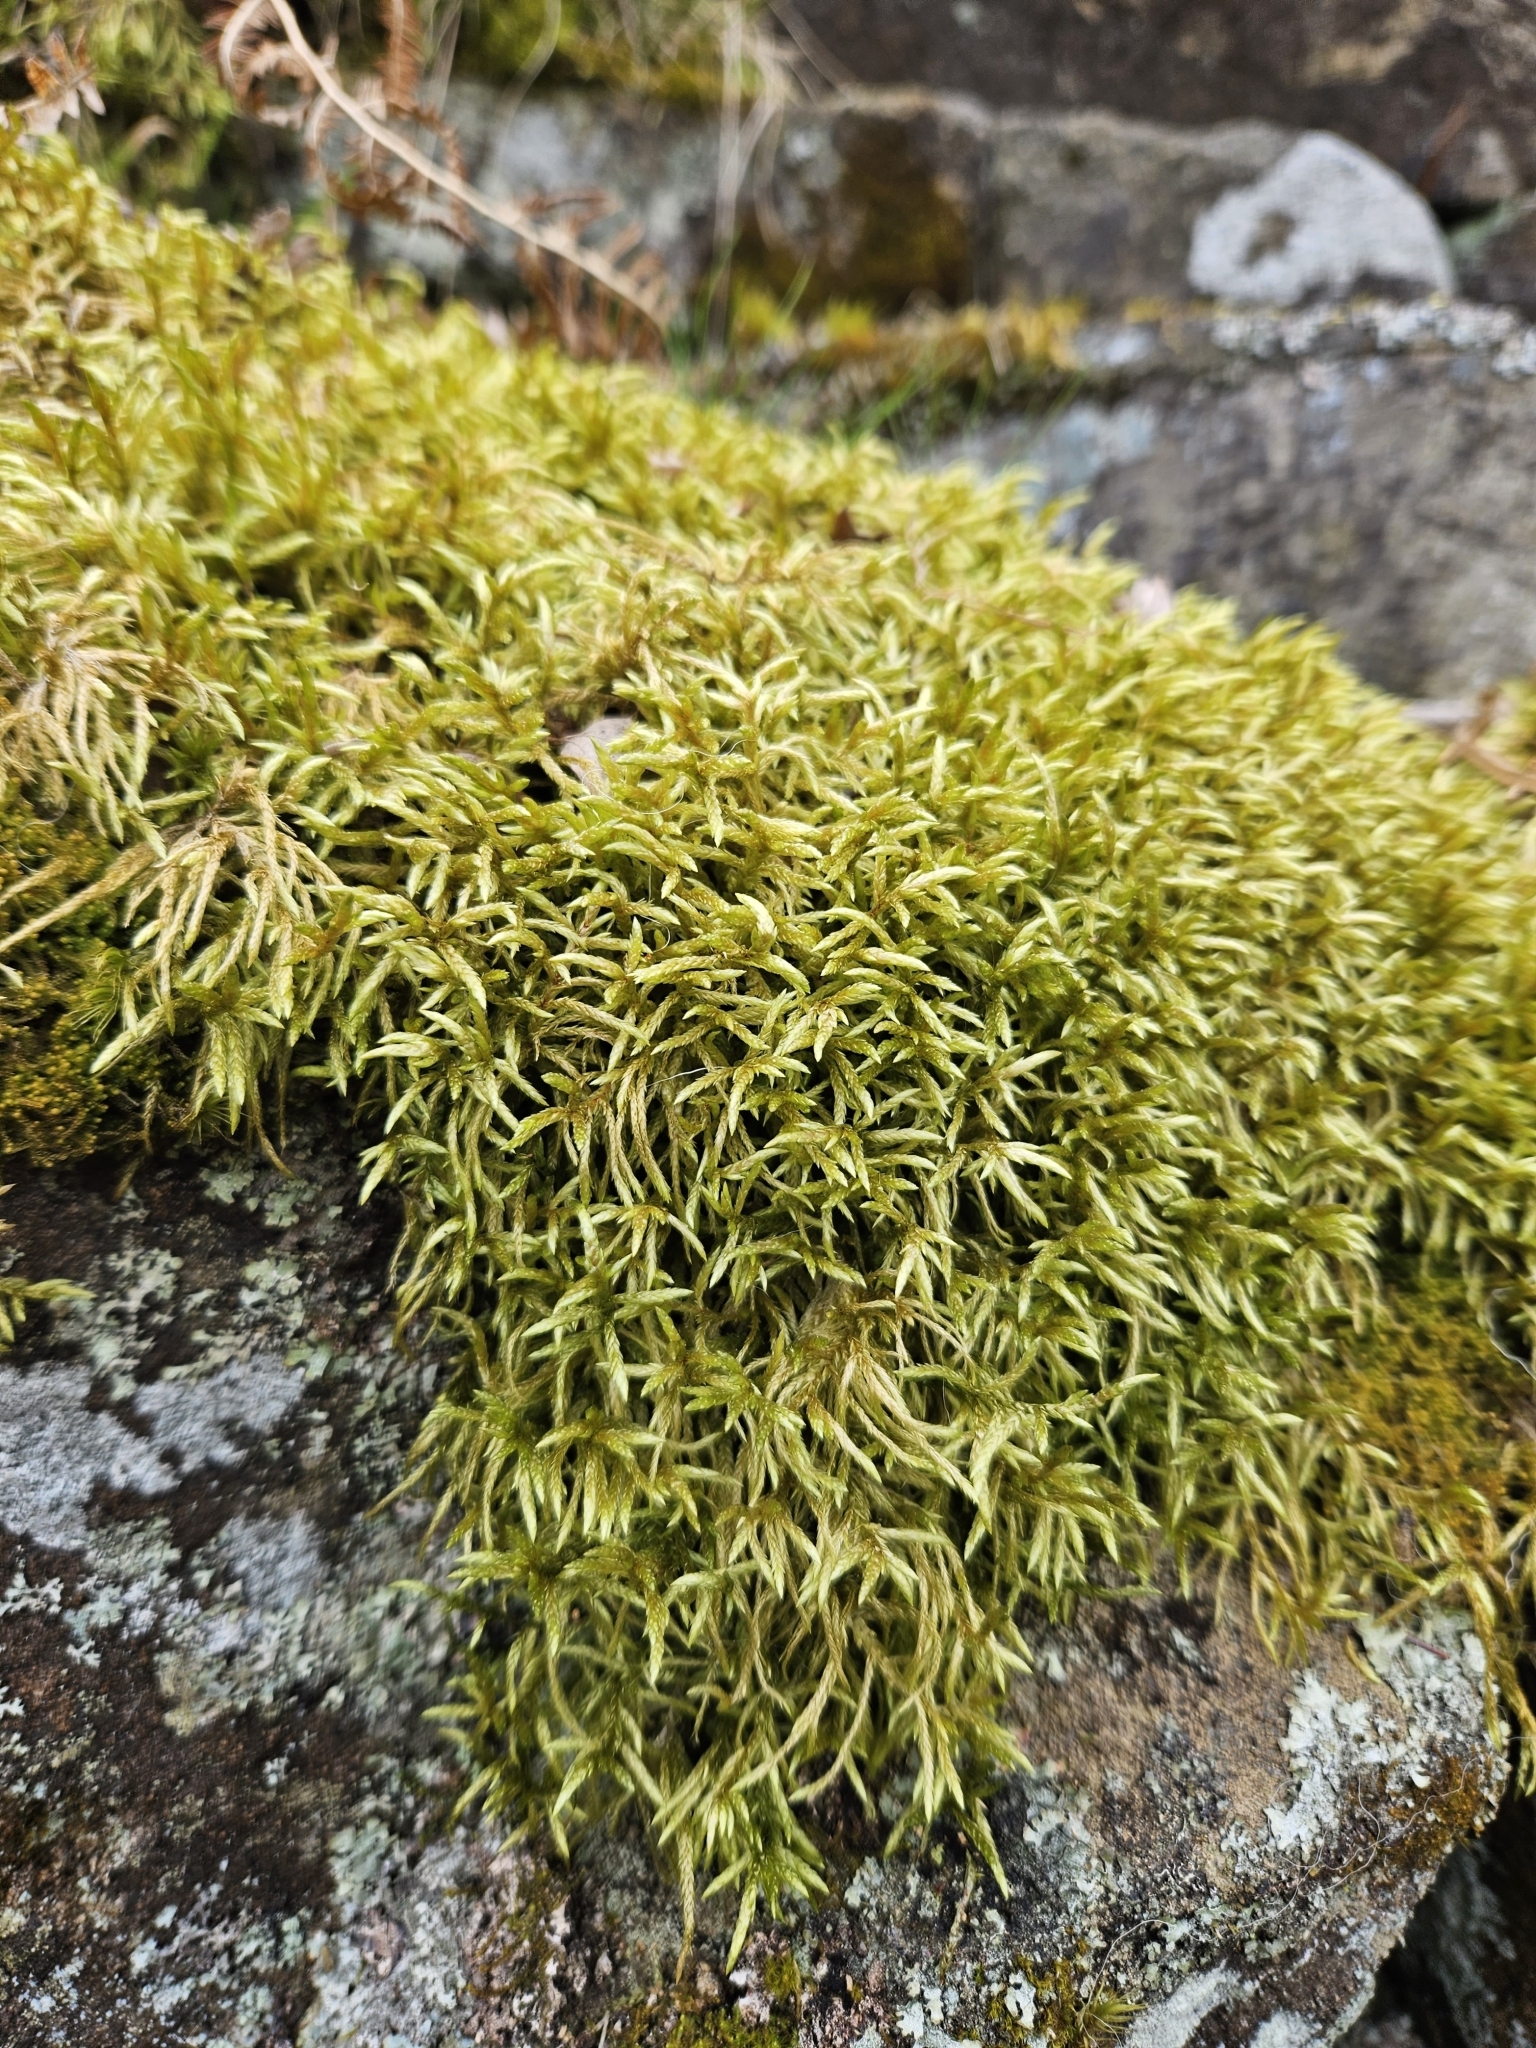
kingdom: Plantae
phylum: Bryophyta
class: Bryopsida
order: Hypnales
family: Hylocomiaceae
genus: Pleurozium
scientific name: Pleurozium schreberi
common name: Red-stemmed feather moss
